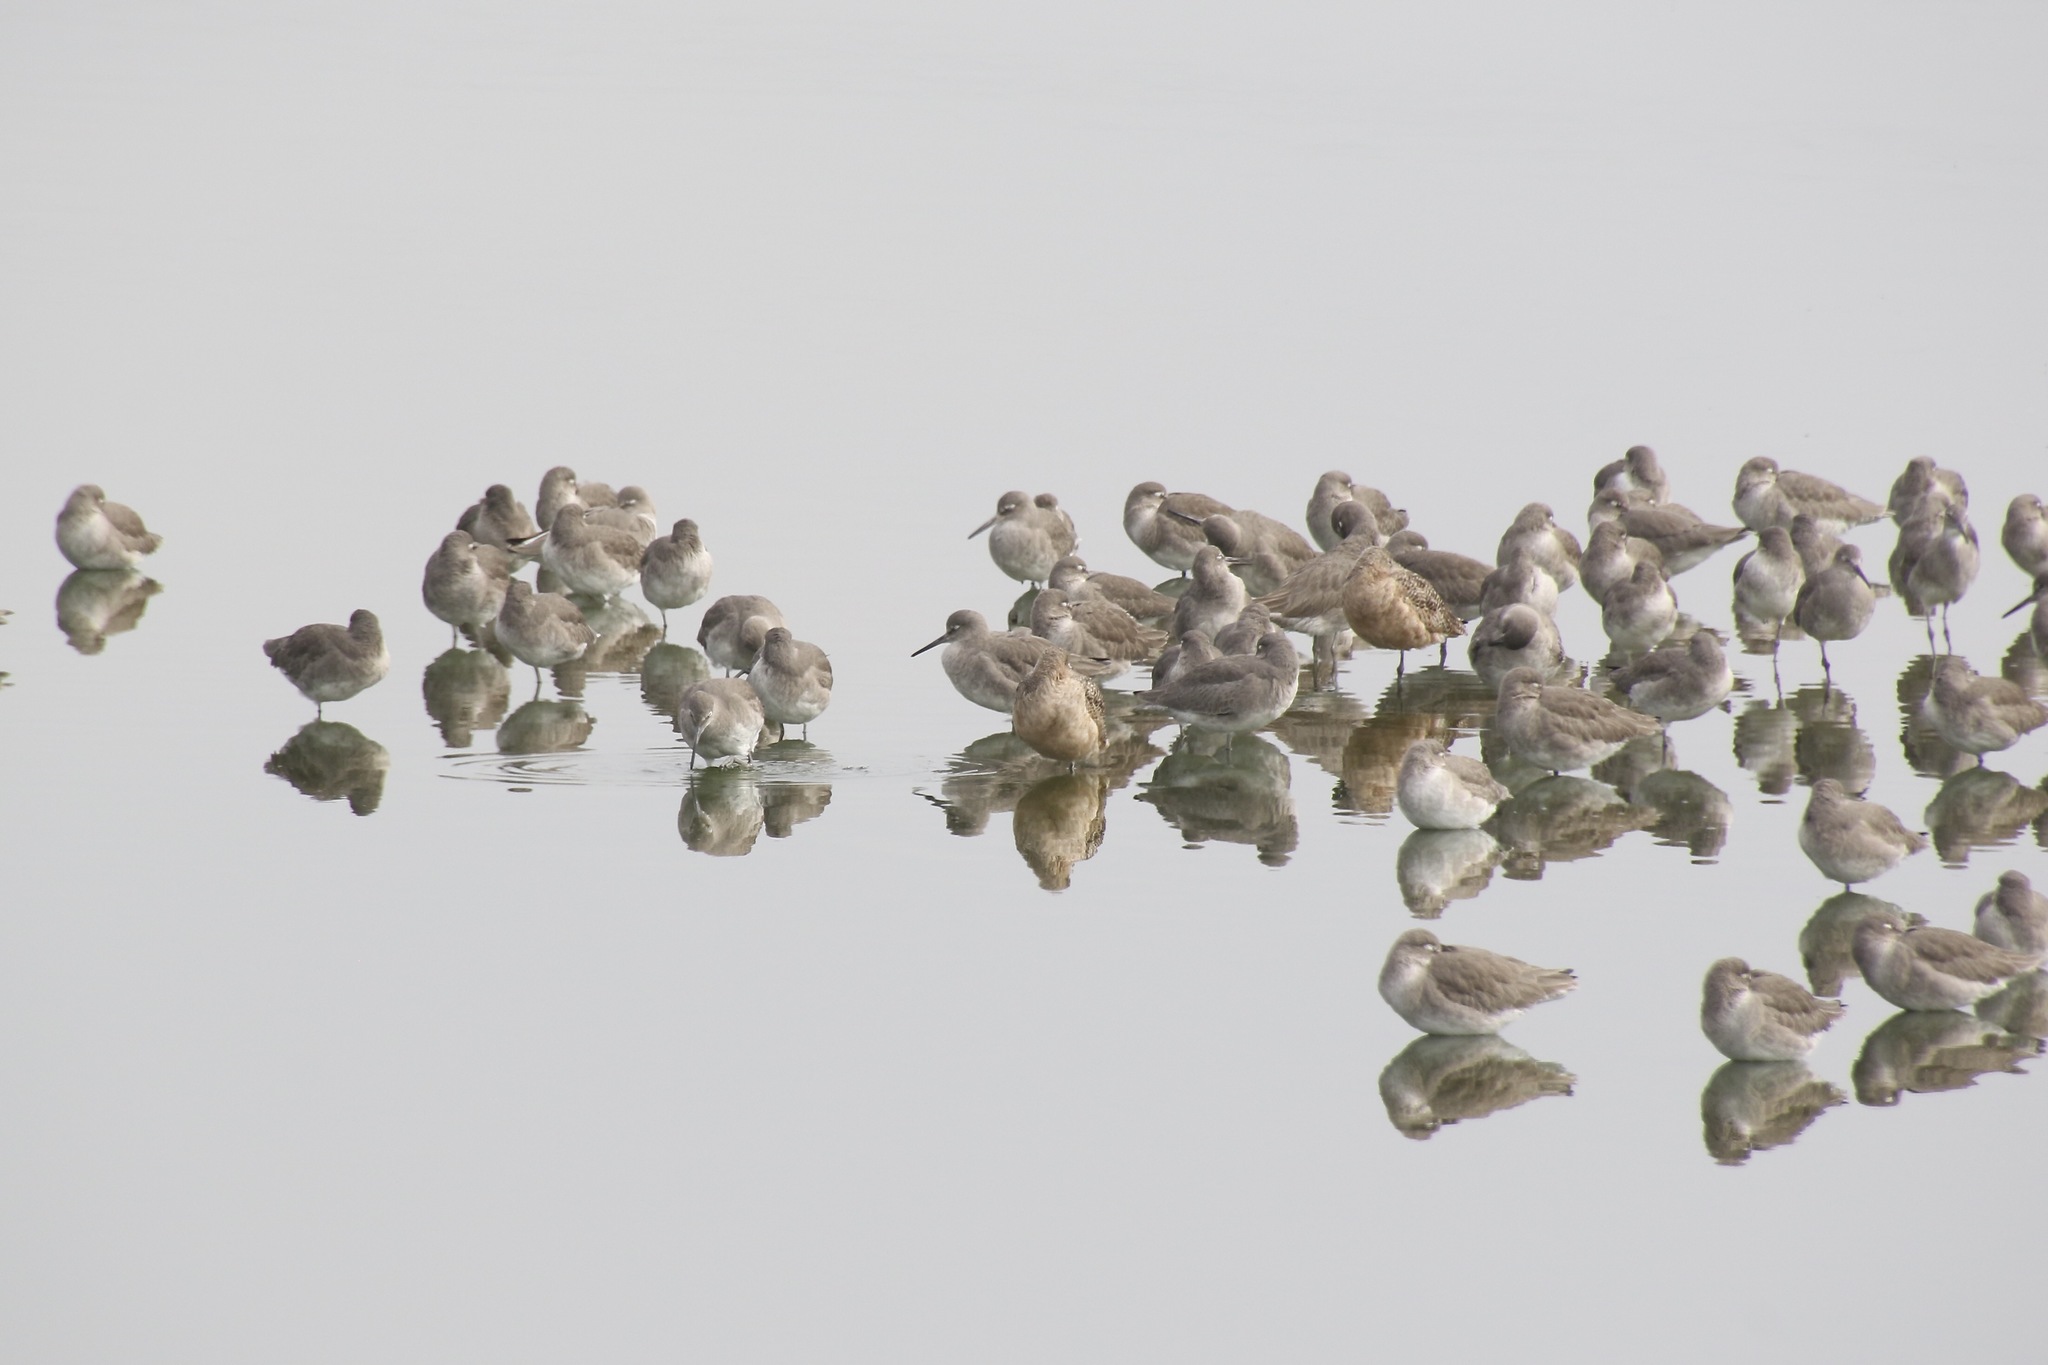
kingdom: Animalia
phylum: Chordata
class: Aves
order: Charadriiformes
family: Scolopacidae
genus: Tringa
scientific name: Tringa semipalmata
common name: Willet
